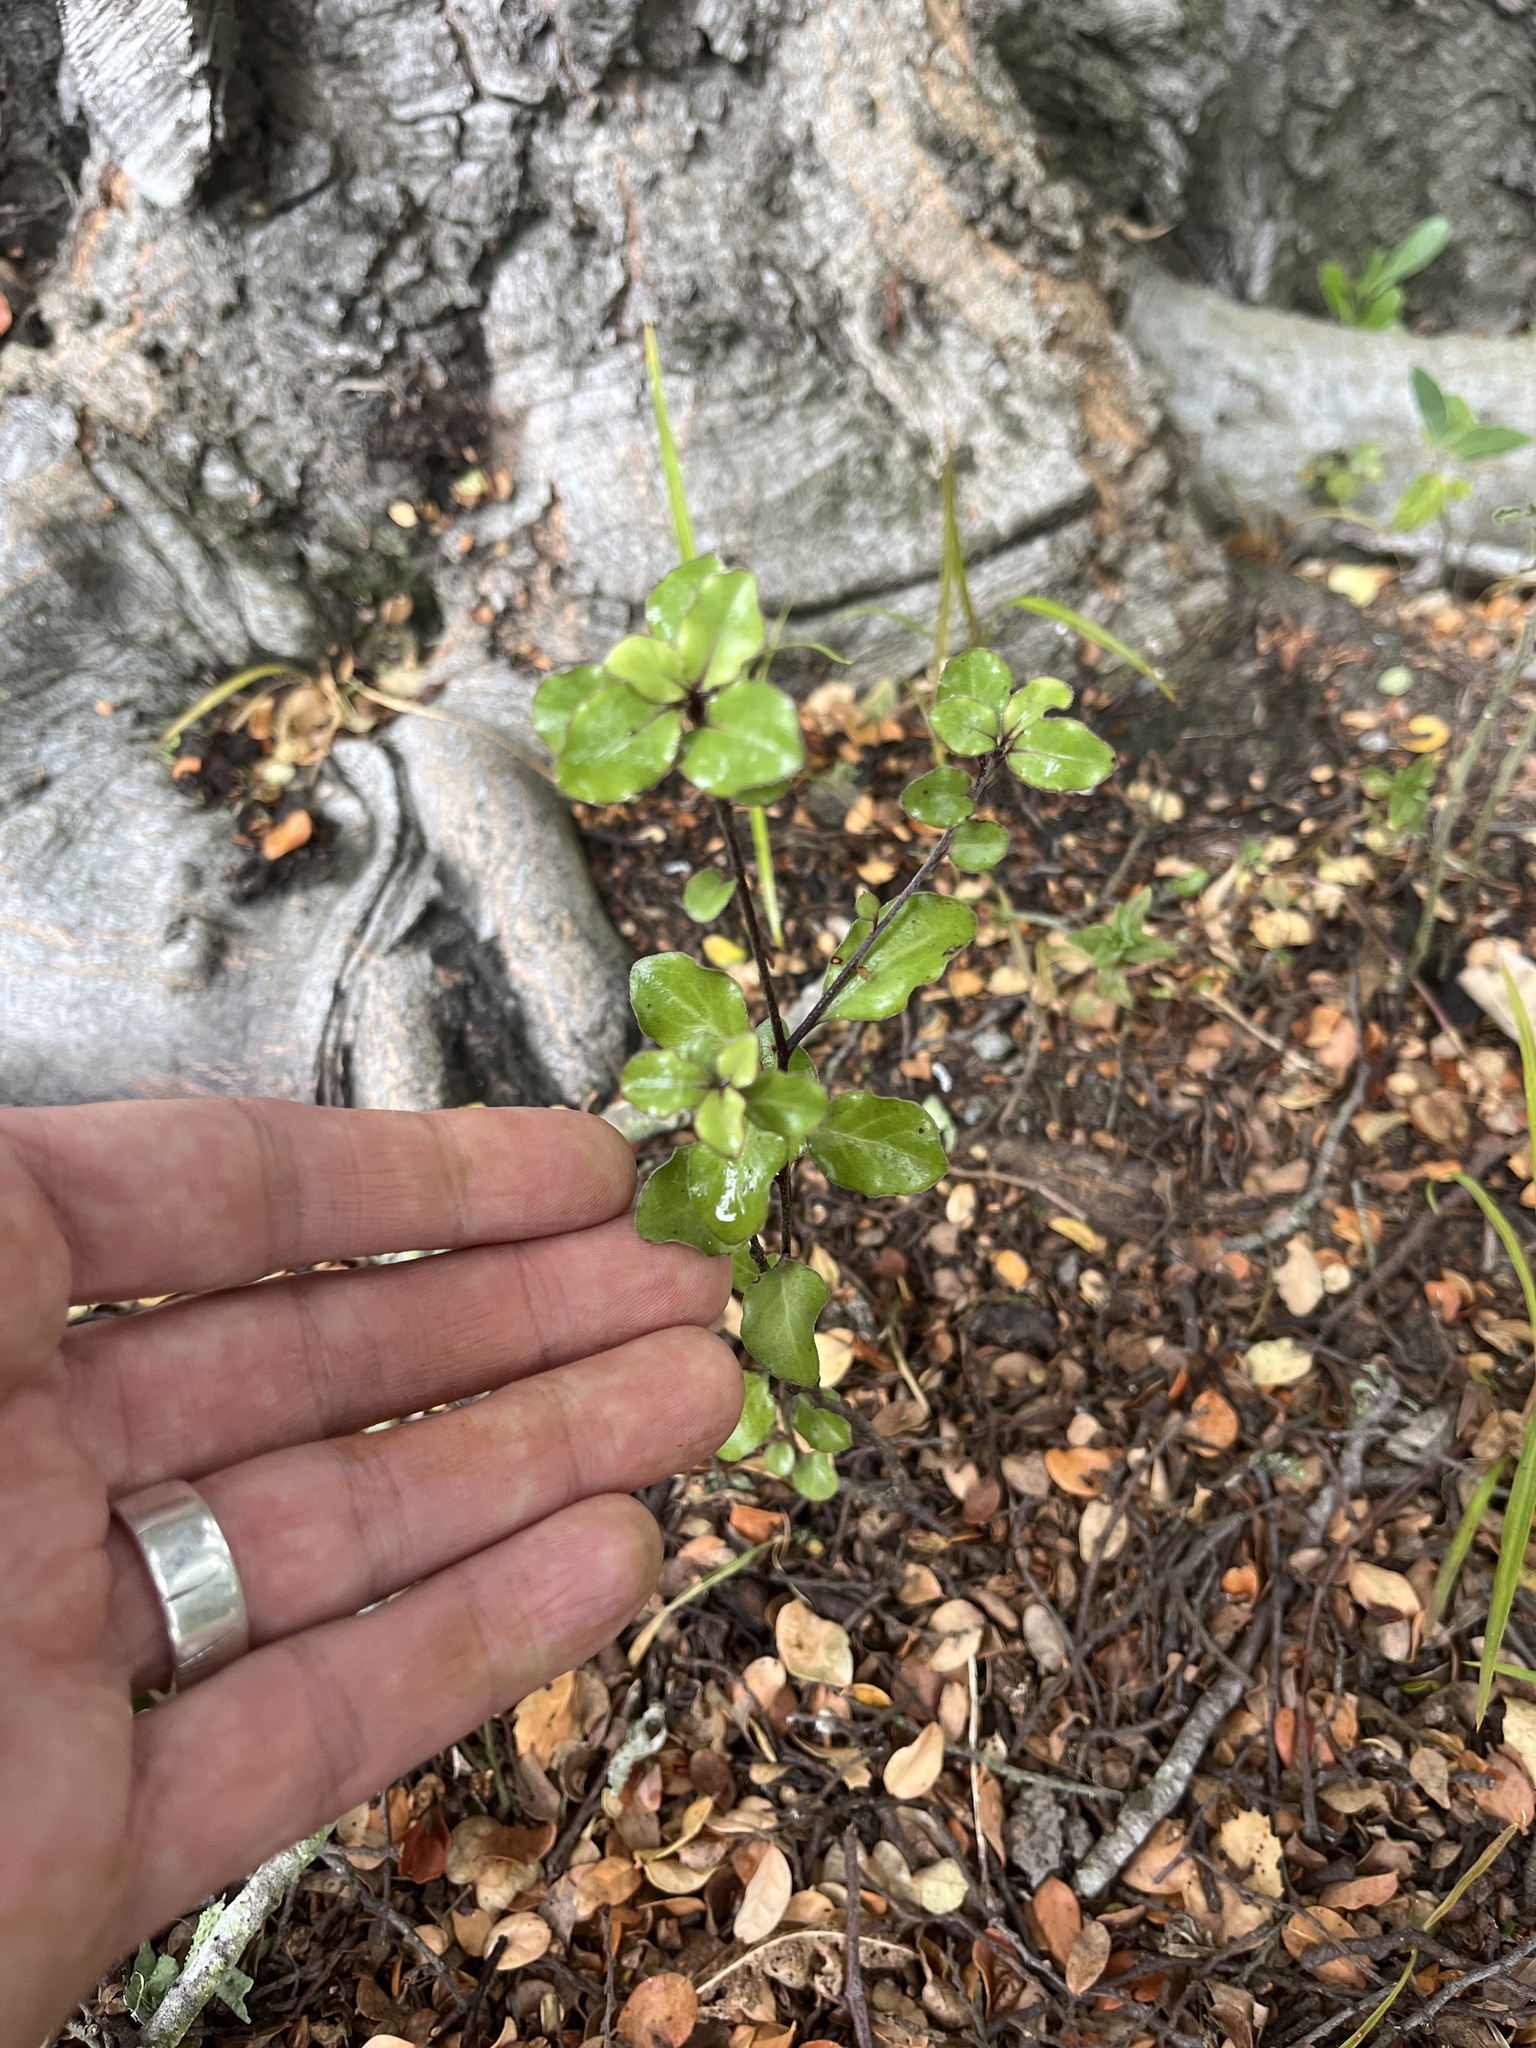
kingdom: Plantae
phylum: Tracheophyta
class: Magnoliopsida
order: Apiales
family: Pittosporaceae
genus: Pittosporum
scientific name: Pittosporum tenuifolium
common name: Kohuhu
